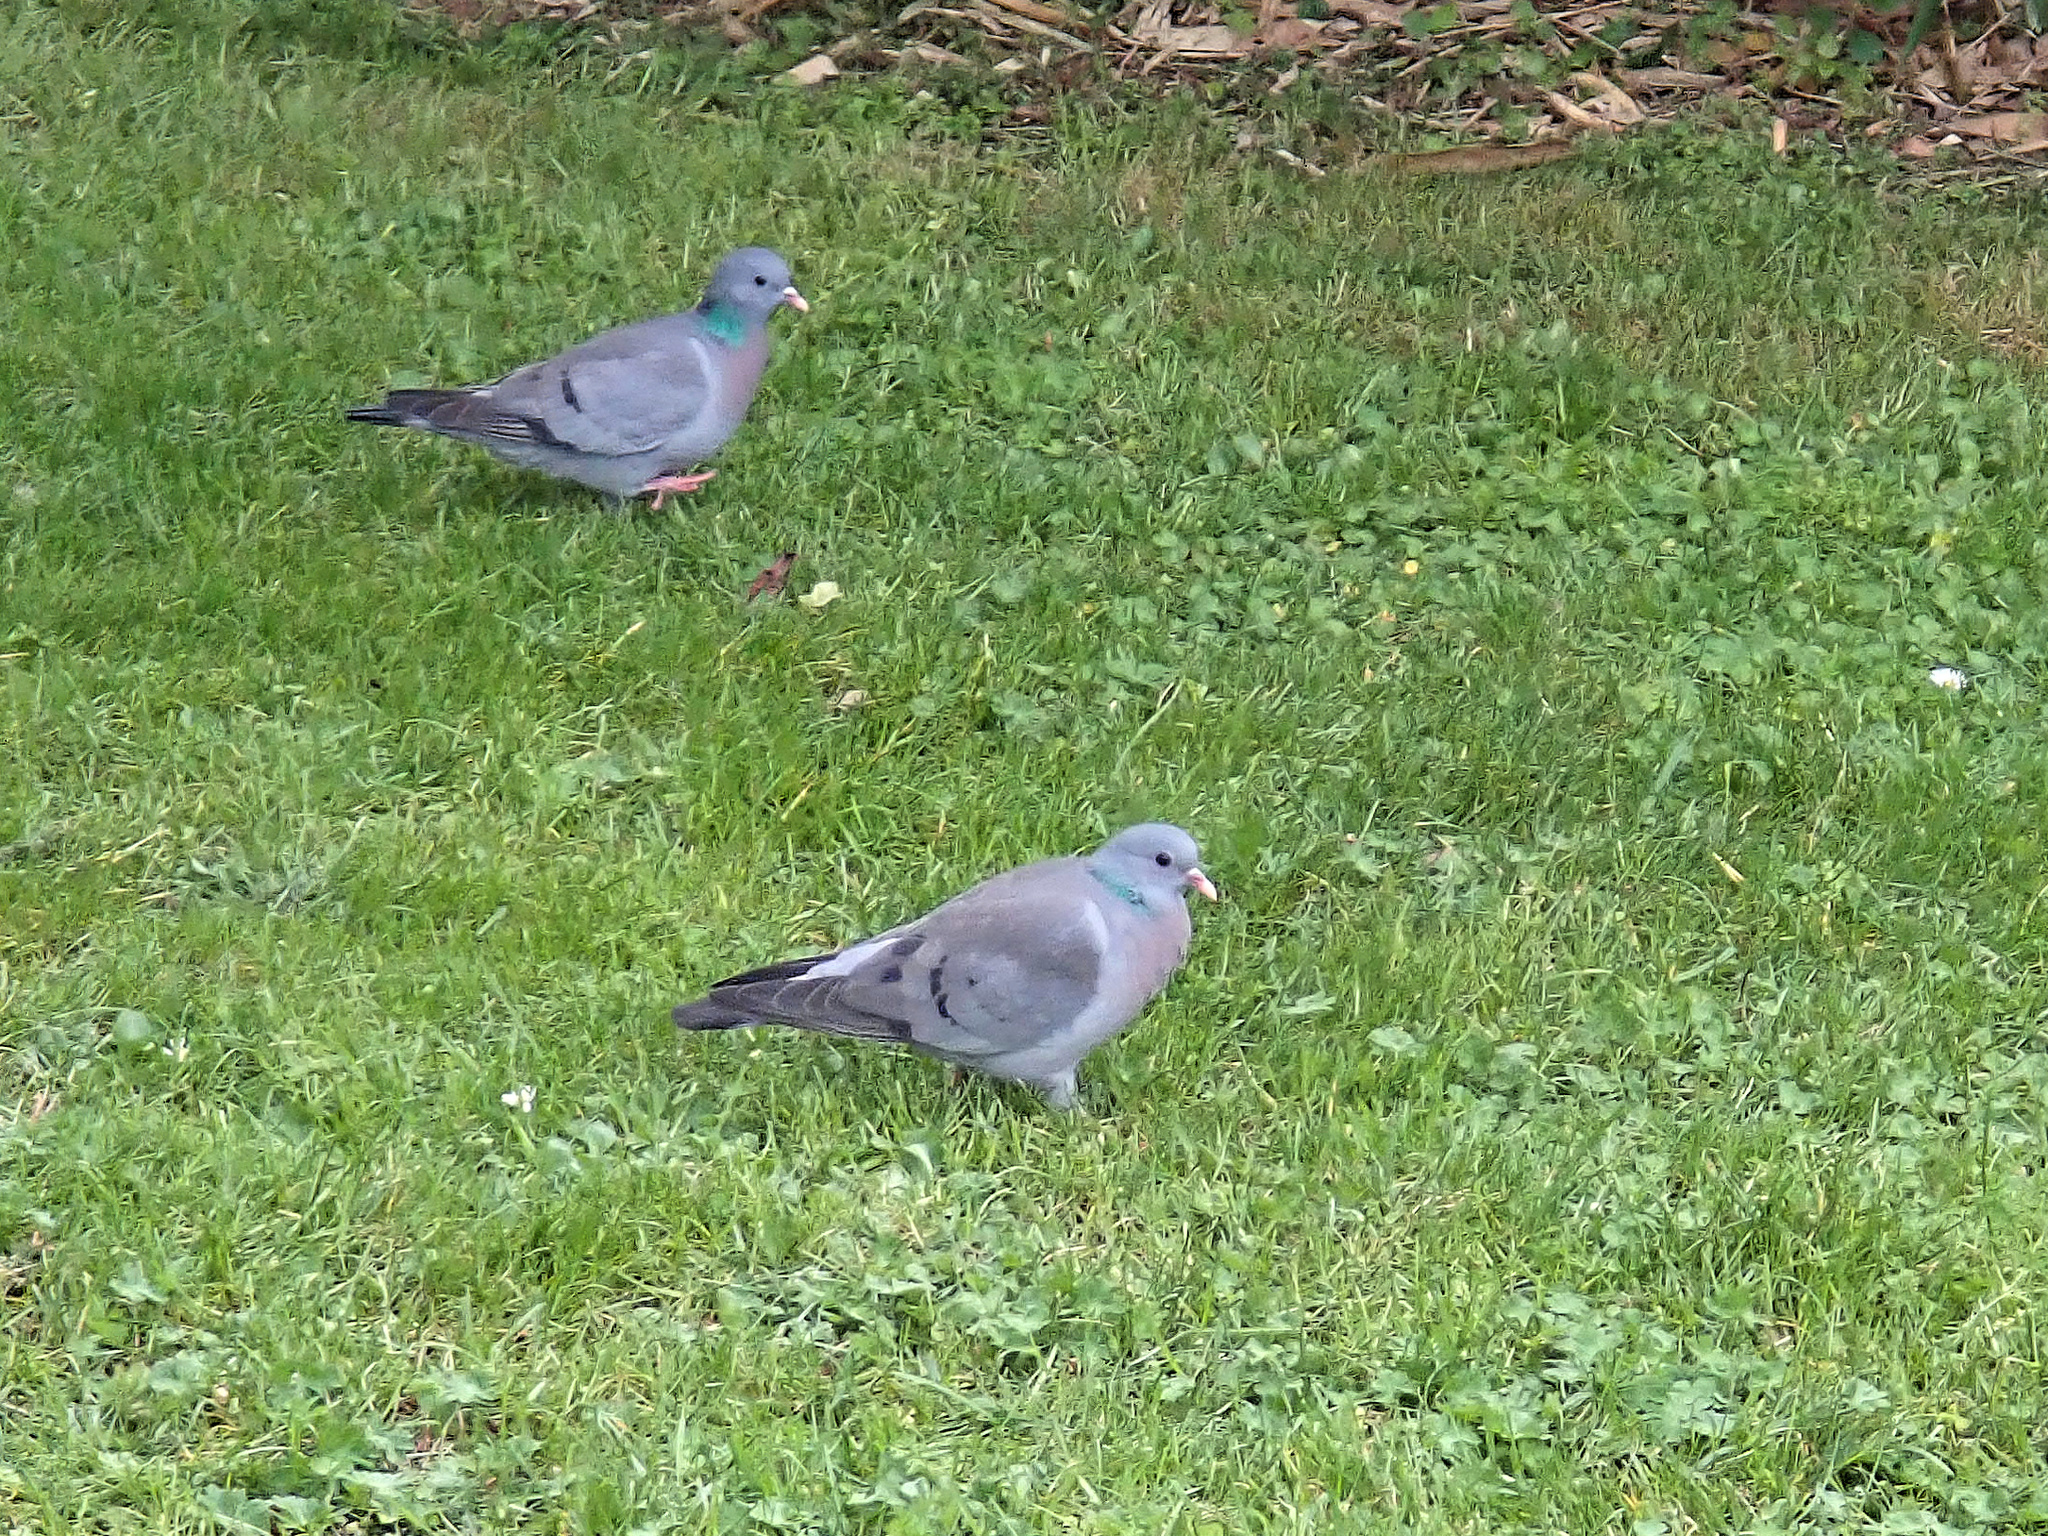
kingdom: Animalia
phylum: Chordata
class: Aves
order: Columbiformes
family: Columbidae
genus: Columba
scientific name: Columba oenas
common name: Stock dove
